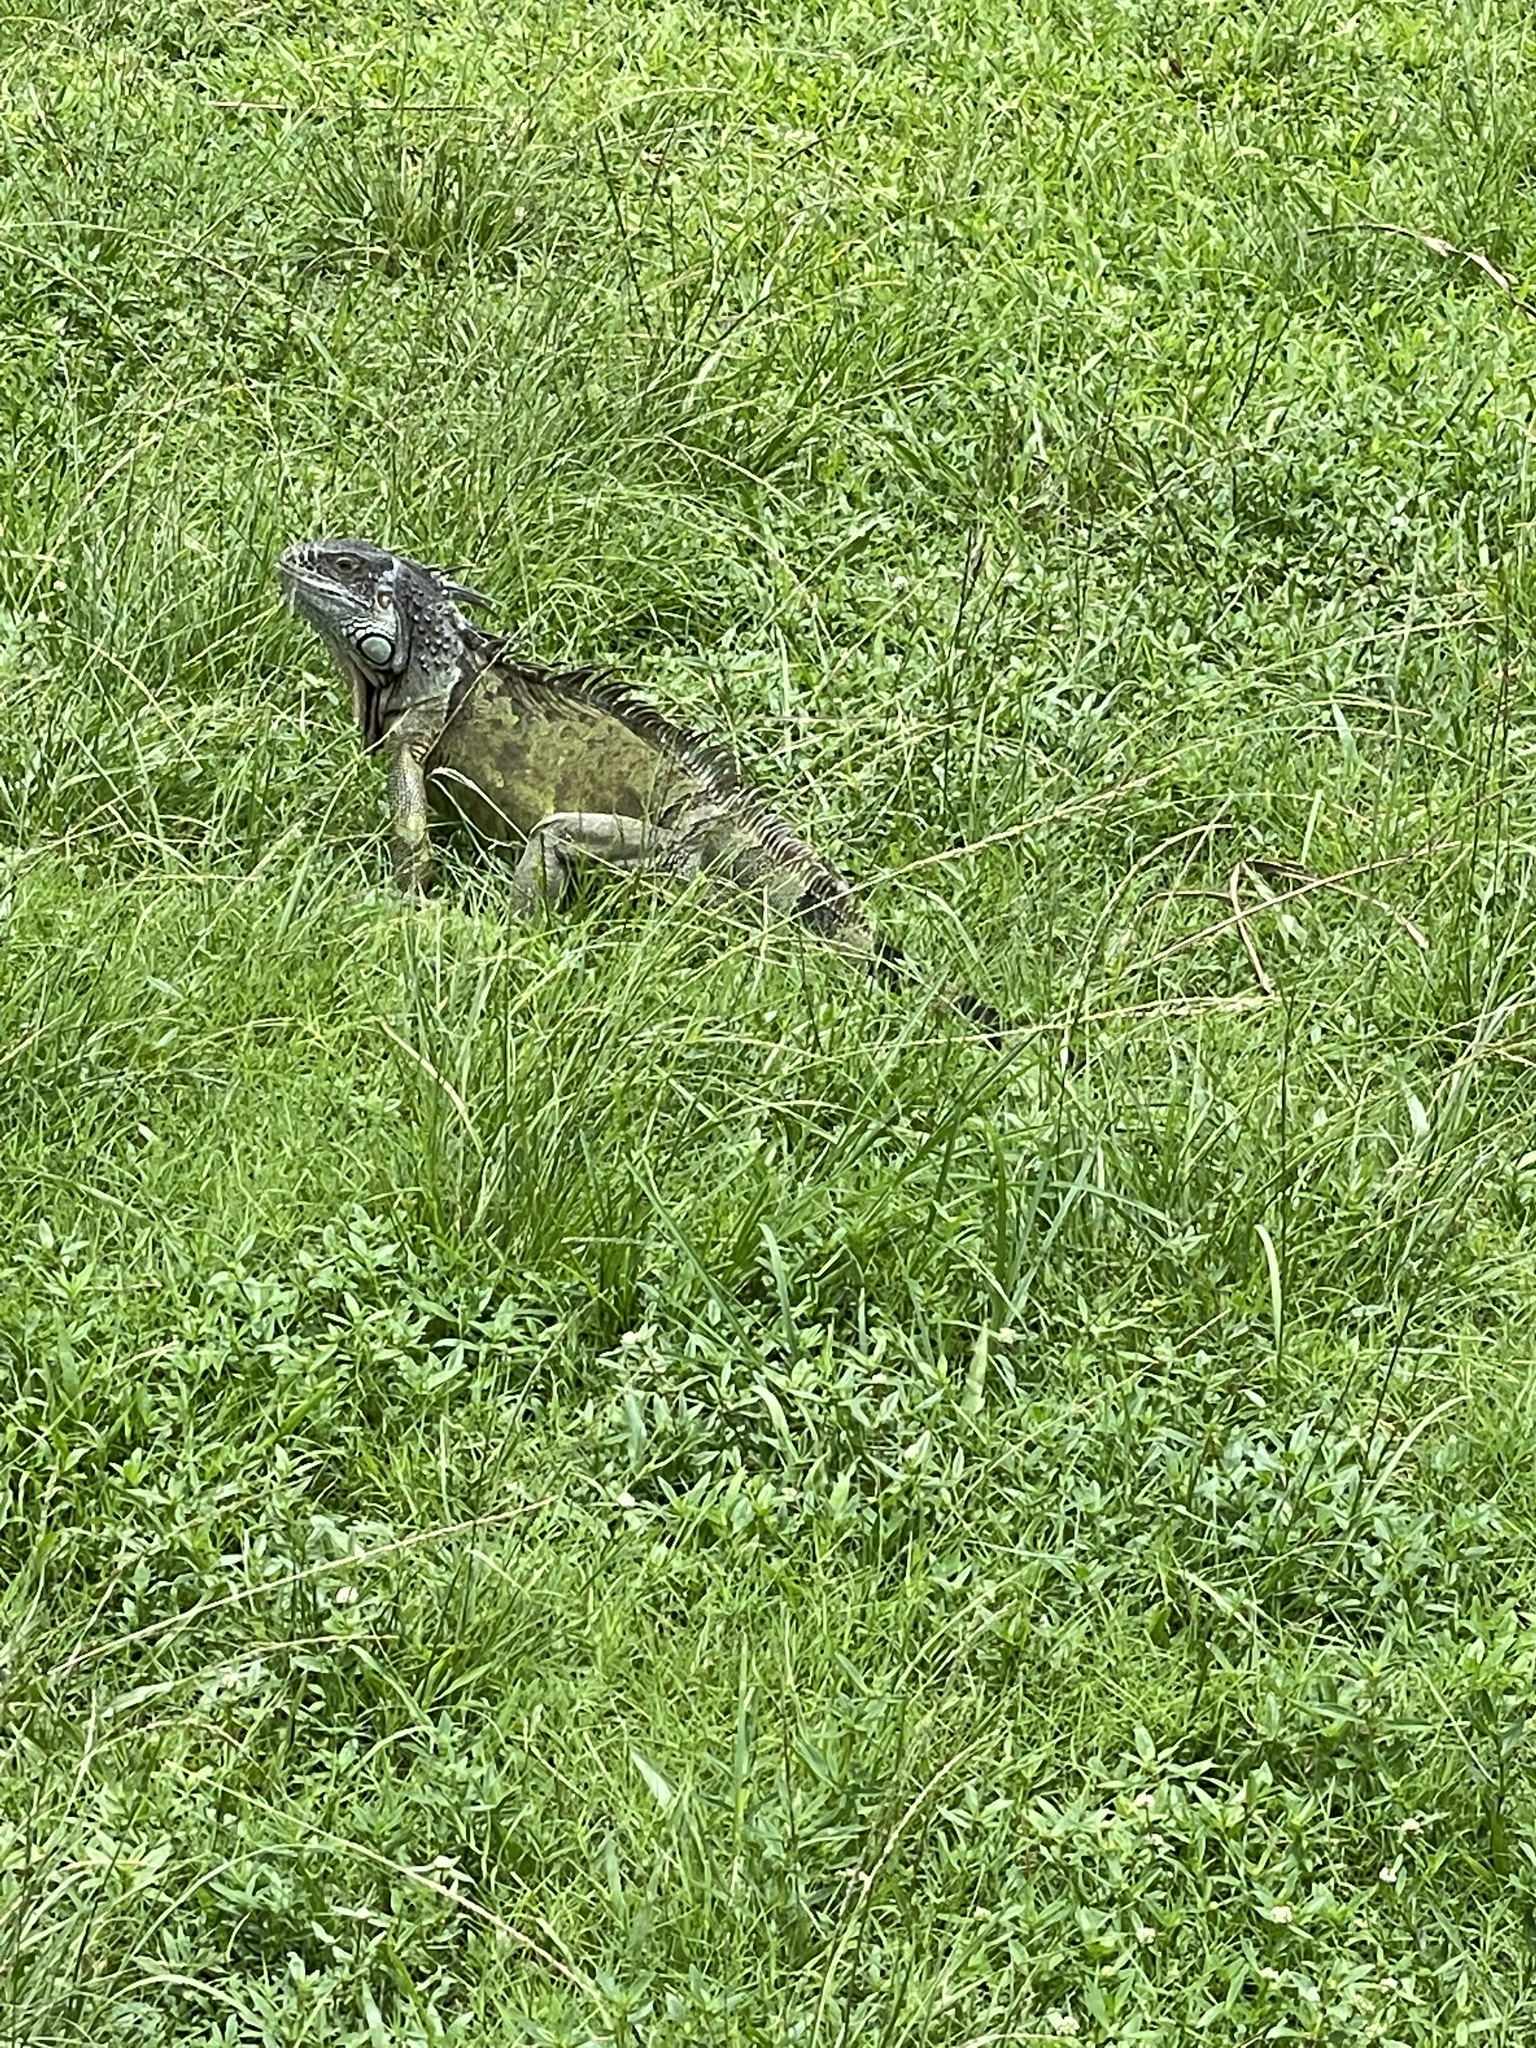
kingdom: Animalia
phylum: Chordata
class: Squamata
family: Iguanidae
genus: Iguana
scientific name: Iguana iguana
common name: Green iguana
